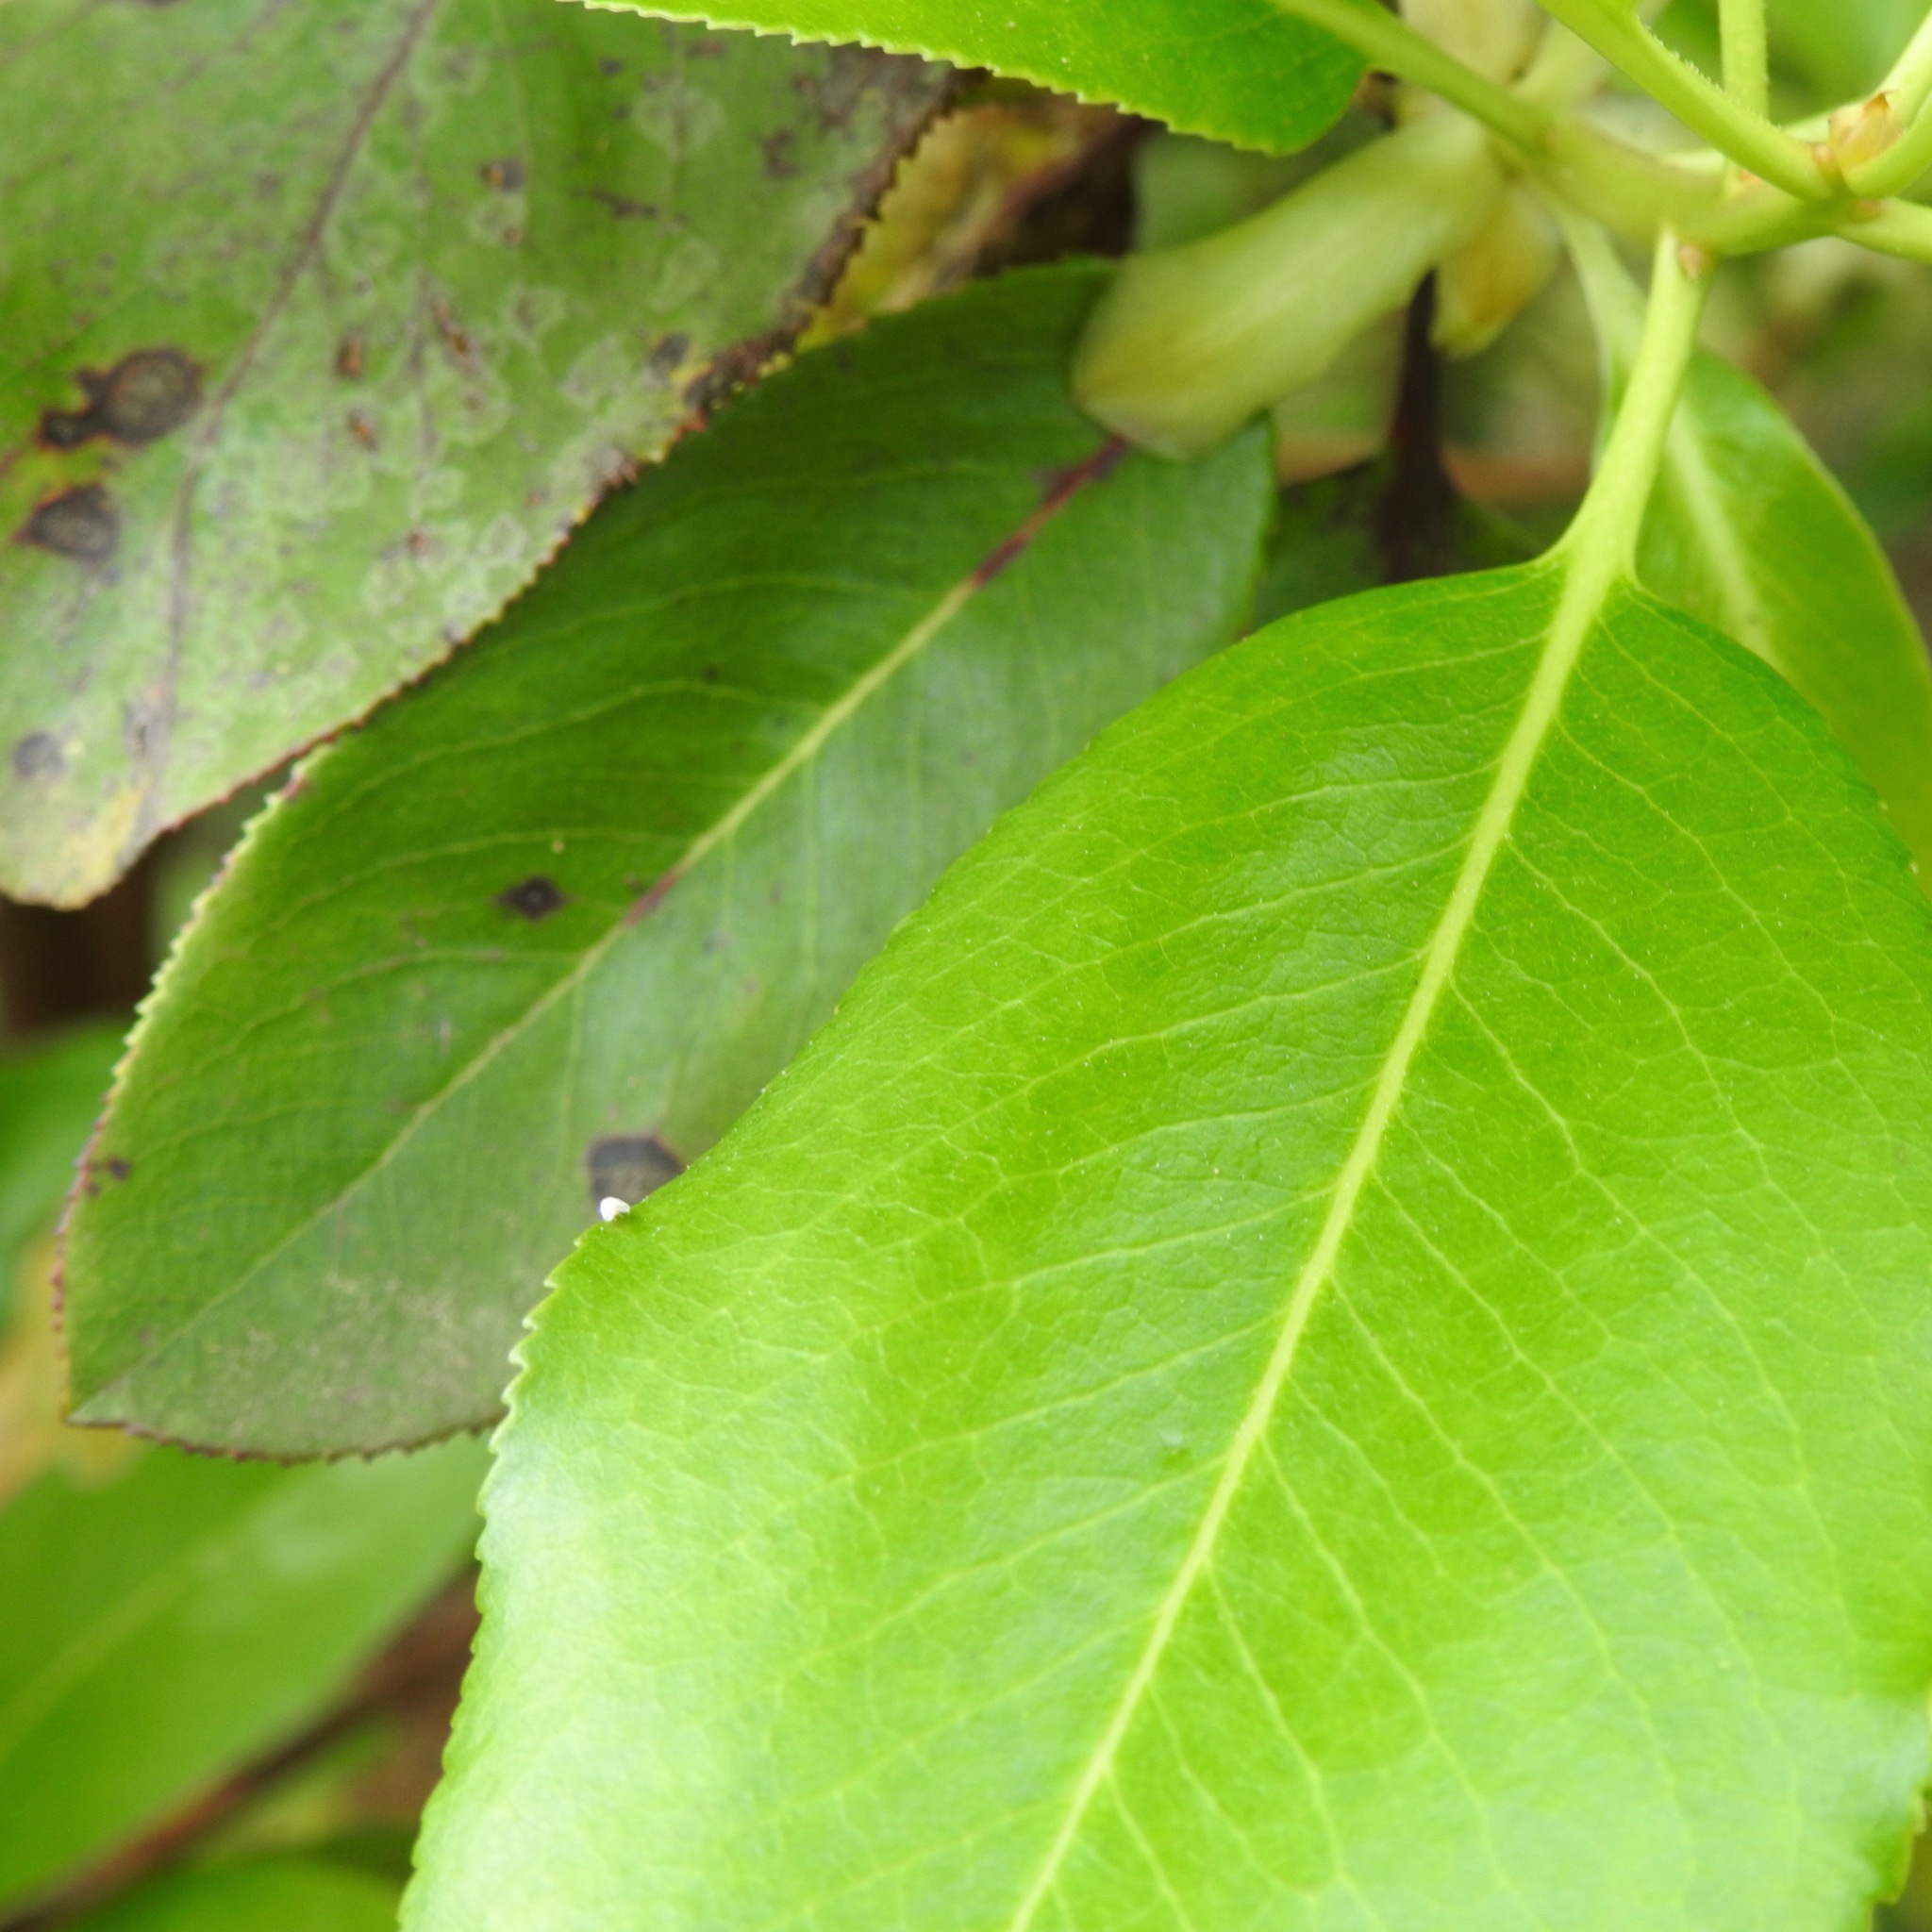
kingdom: Plantae
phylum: Tracheophyta
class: Magnoliopsida
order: Ericales
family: Ericaceae
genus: Arbutus
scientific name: Arbutus menziesii
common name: Pacific madrone
